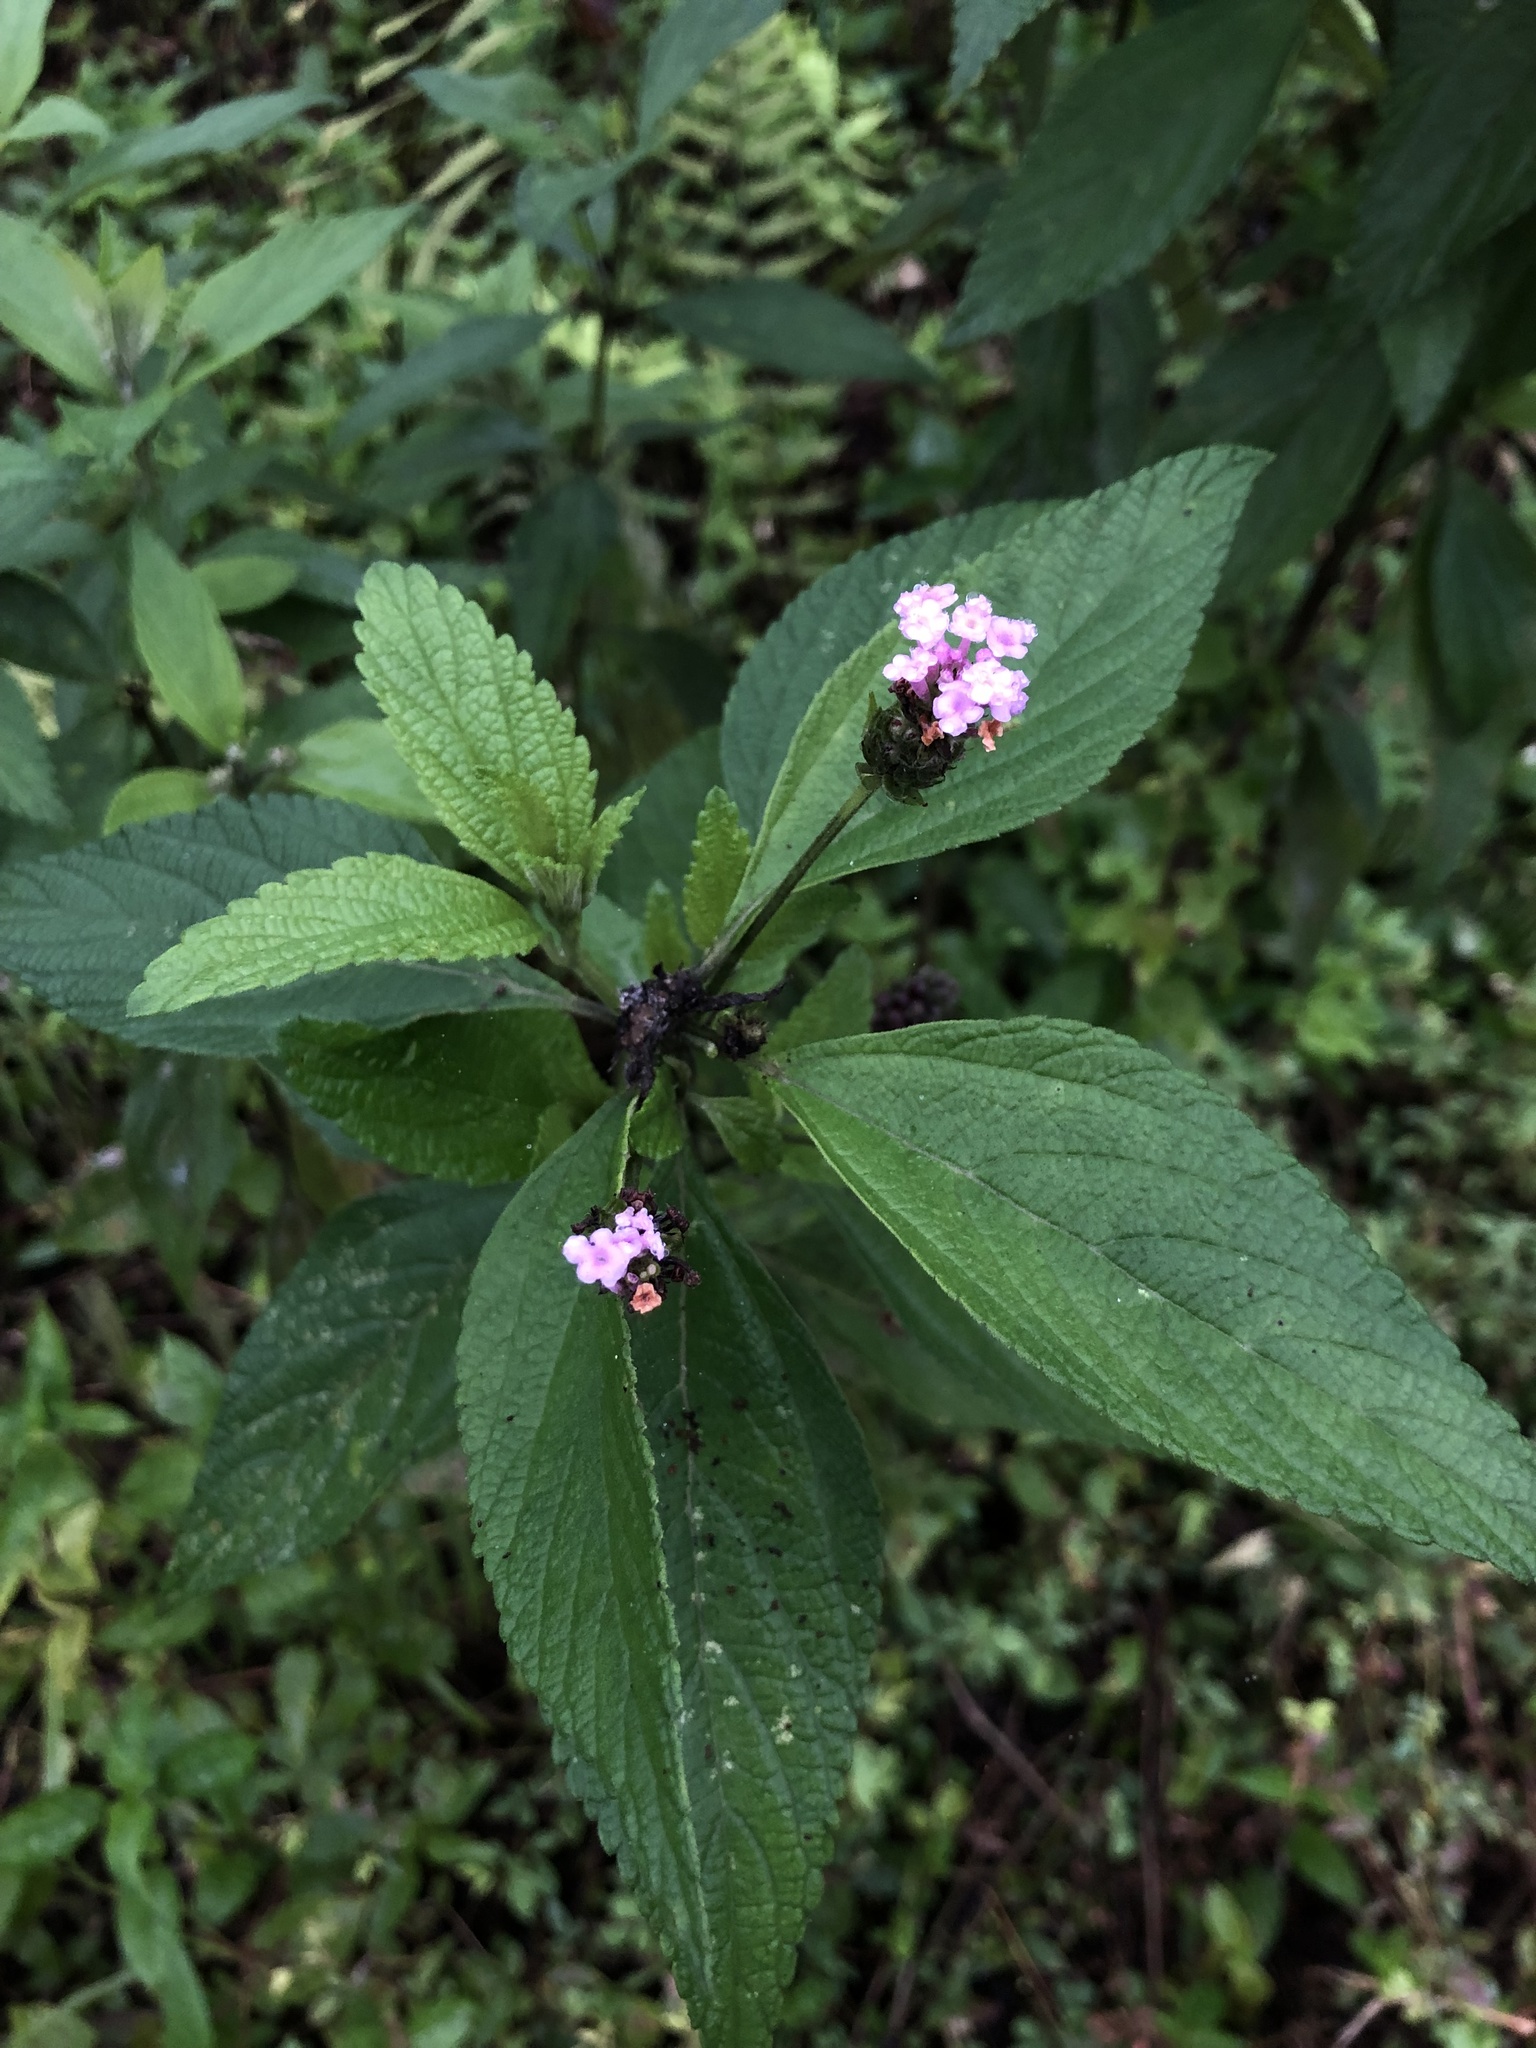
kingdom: Plantae
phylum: Tracheophyta
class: Magnoliopsida
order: Lamiales
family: Verbenaceae
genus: Lantana
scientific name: Lantana trifolia
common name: Sweet-sage
